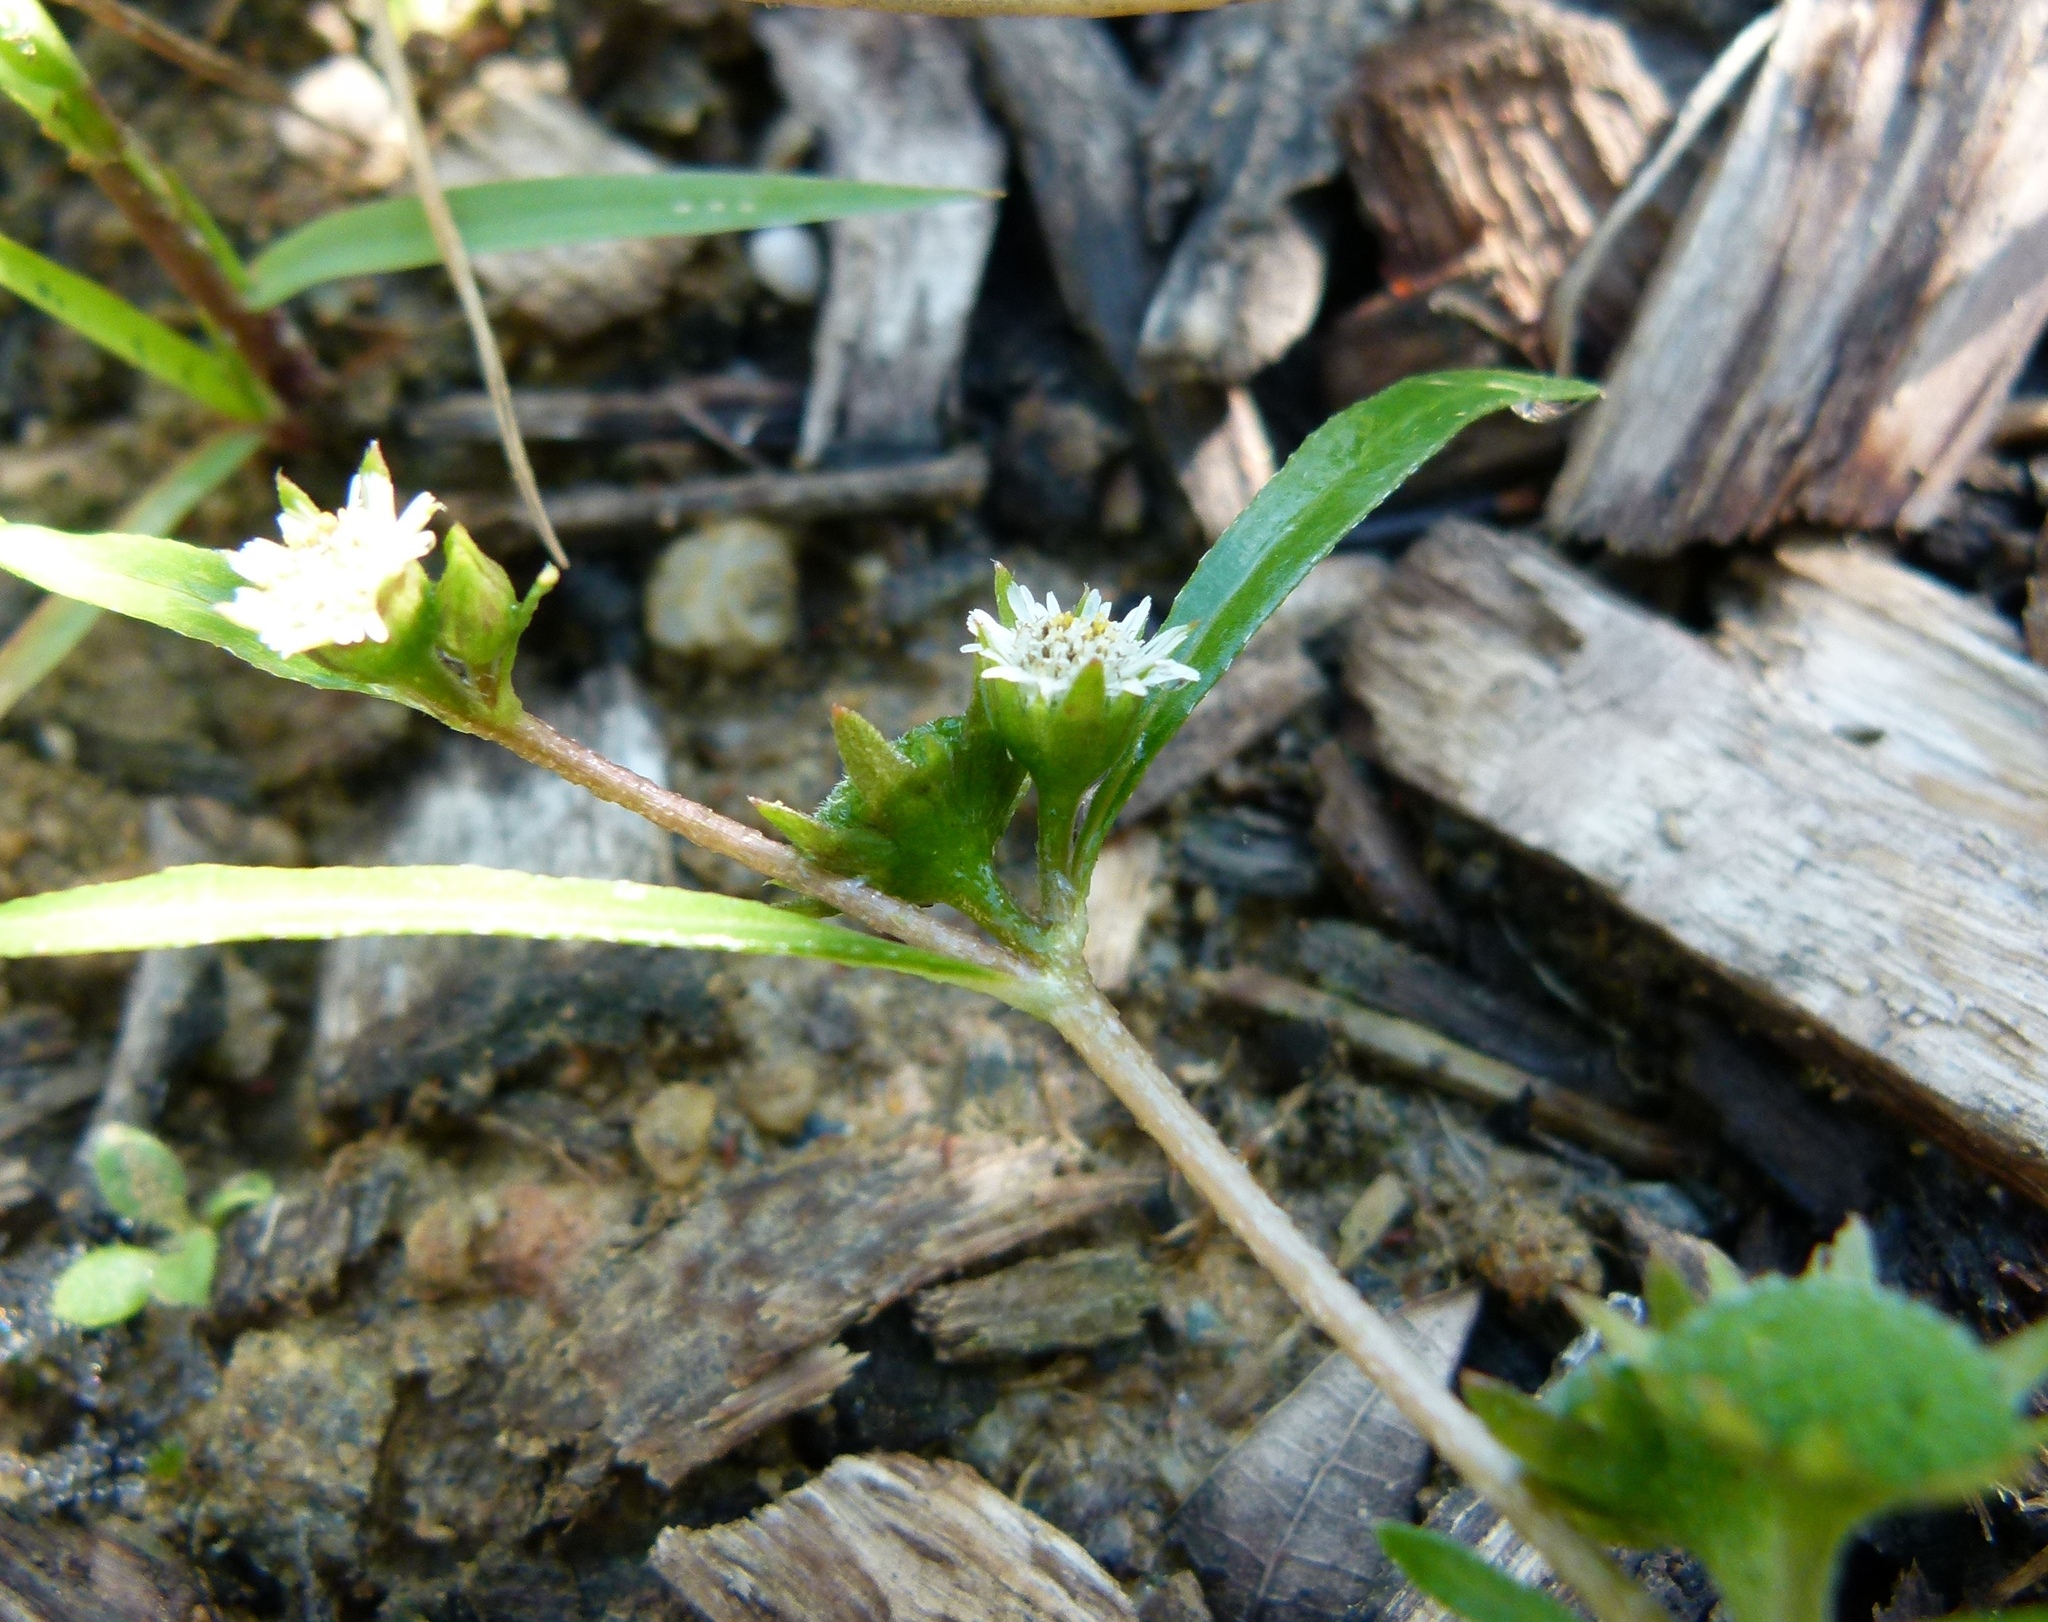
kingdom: Plantae
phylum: Tracheophyta
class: Magnoliopsida
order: Asterales
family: Asteraceae
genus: Eclipta
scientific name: Eclipta prostrata
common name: False daisy
